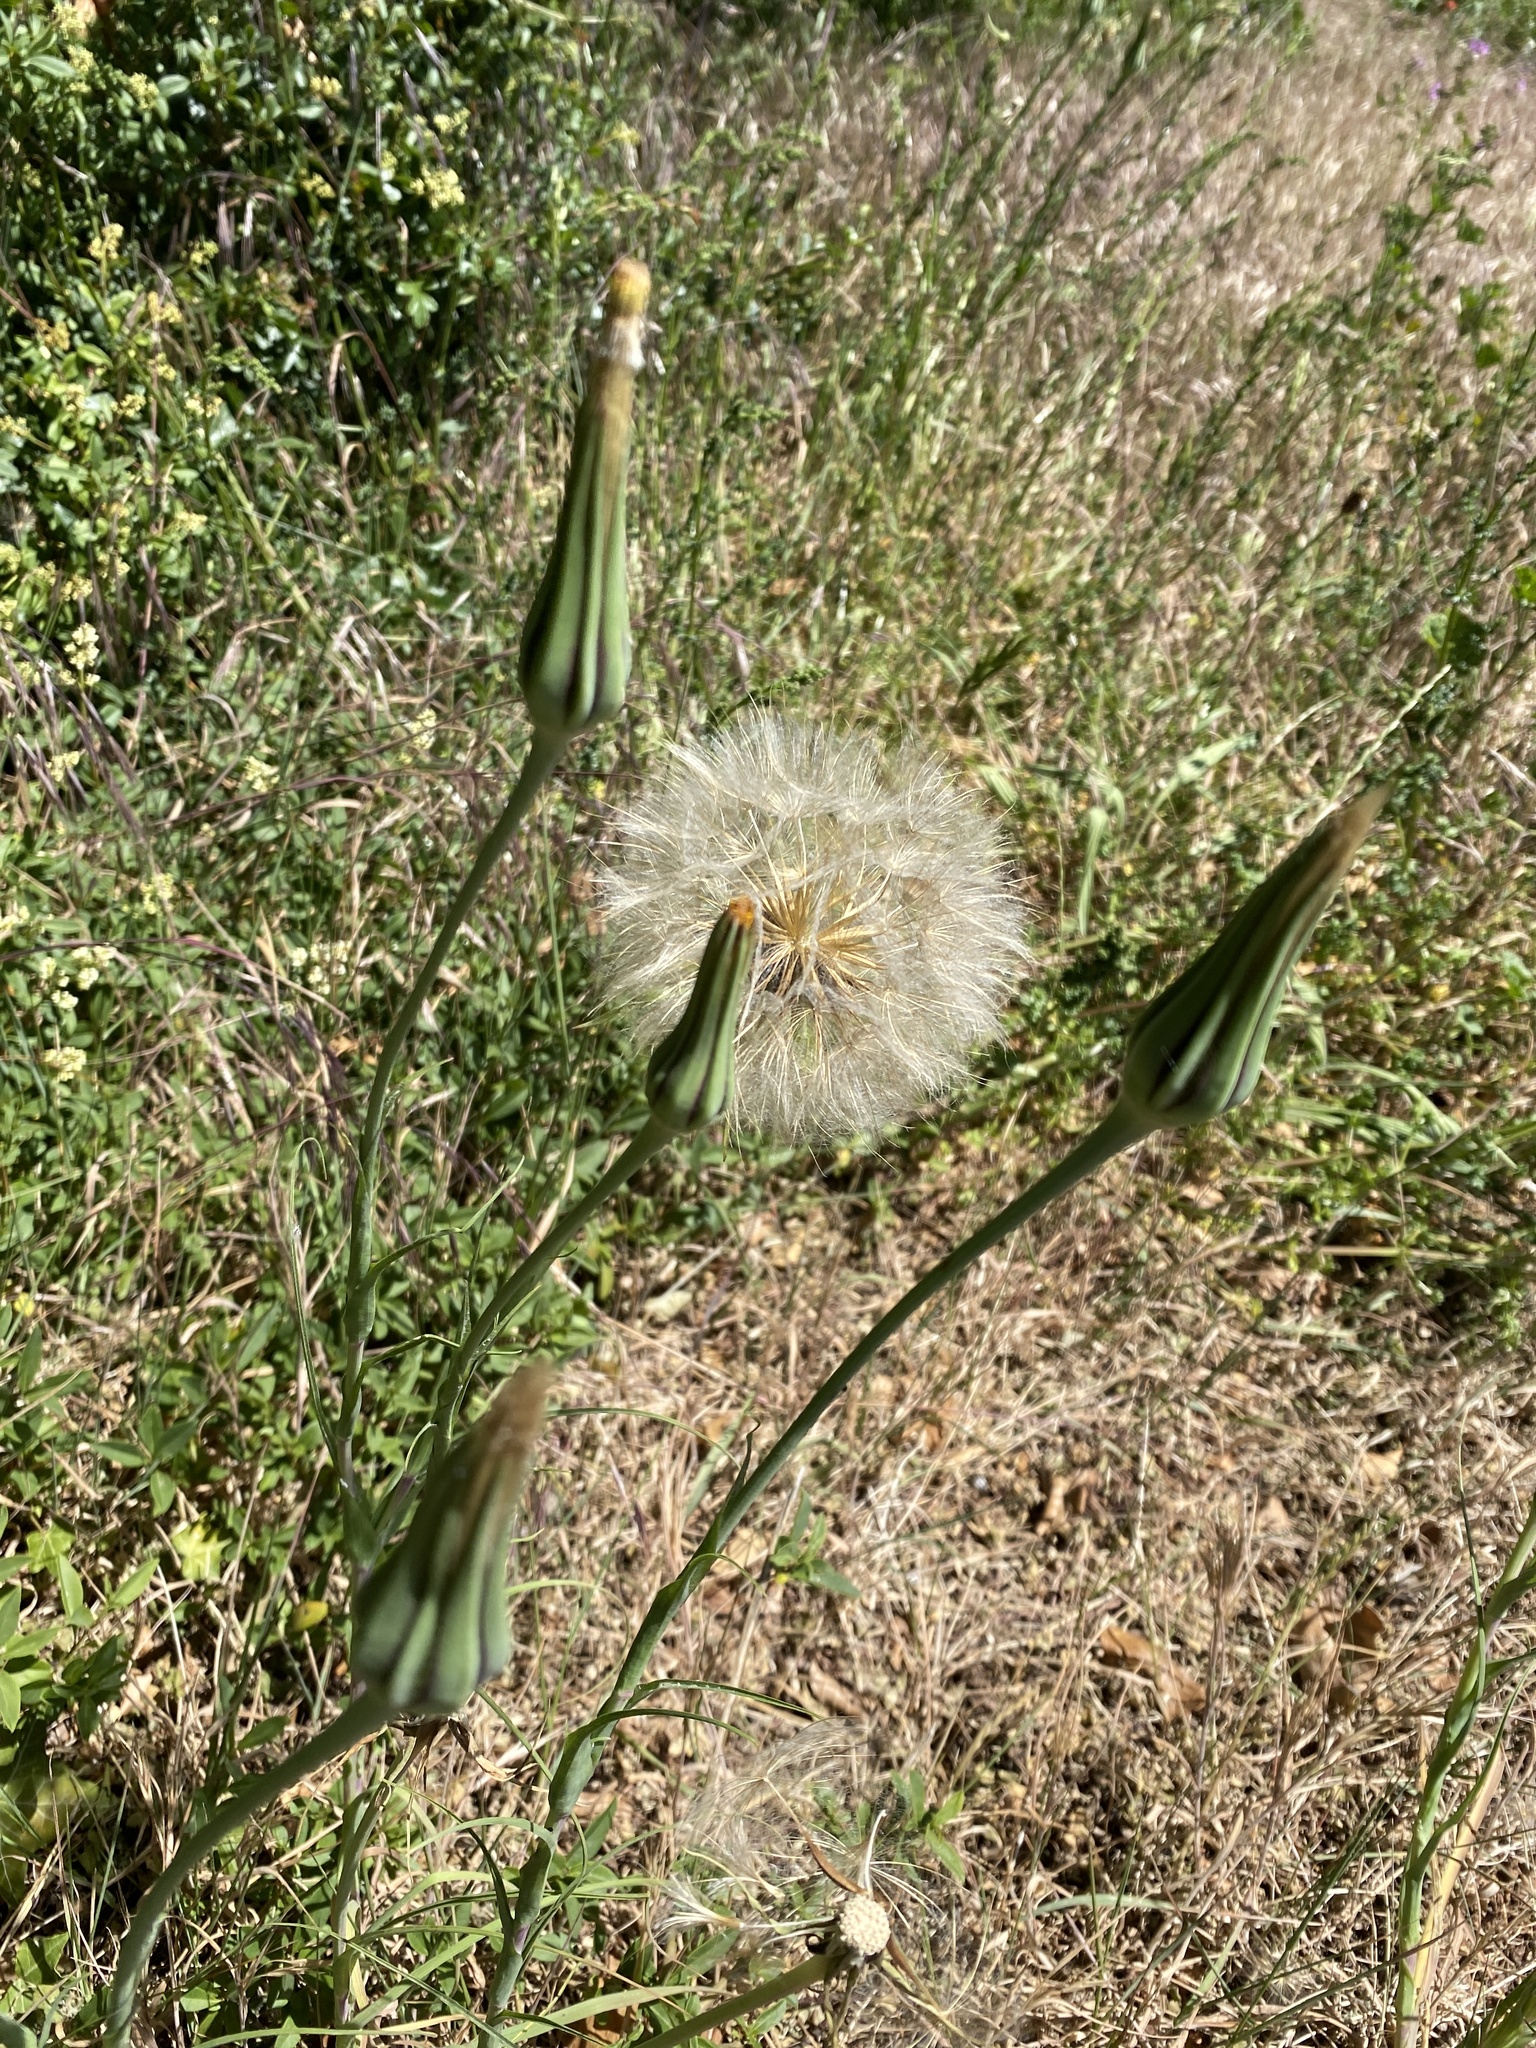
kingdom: Plantae
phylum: Tracheophyta
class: Magnoliopsida
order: Asterales
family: Asteraceae
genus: Tragopogon
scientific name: Tragopogon pratensis
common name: Goat's-beard
